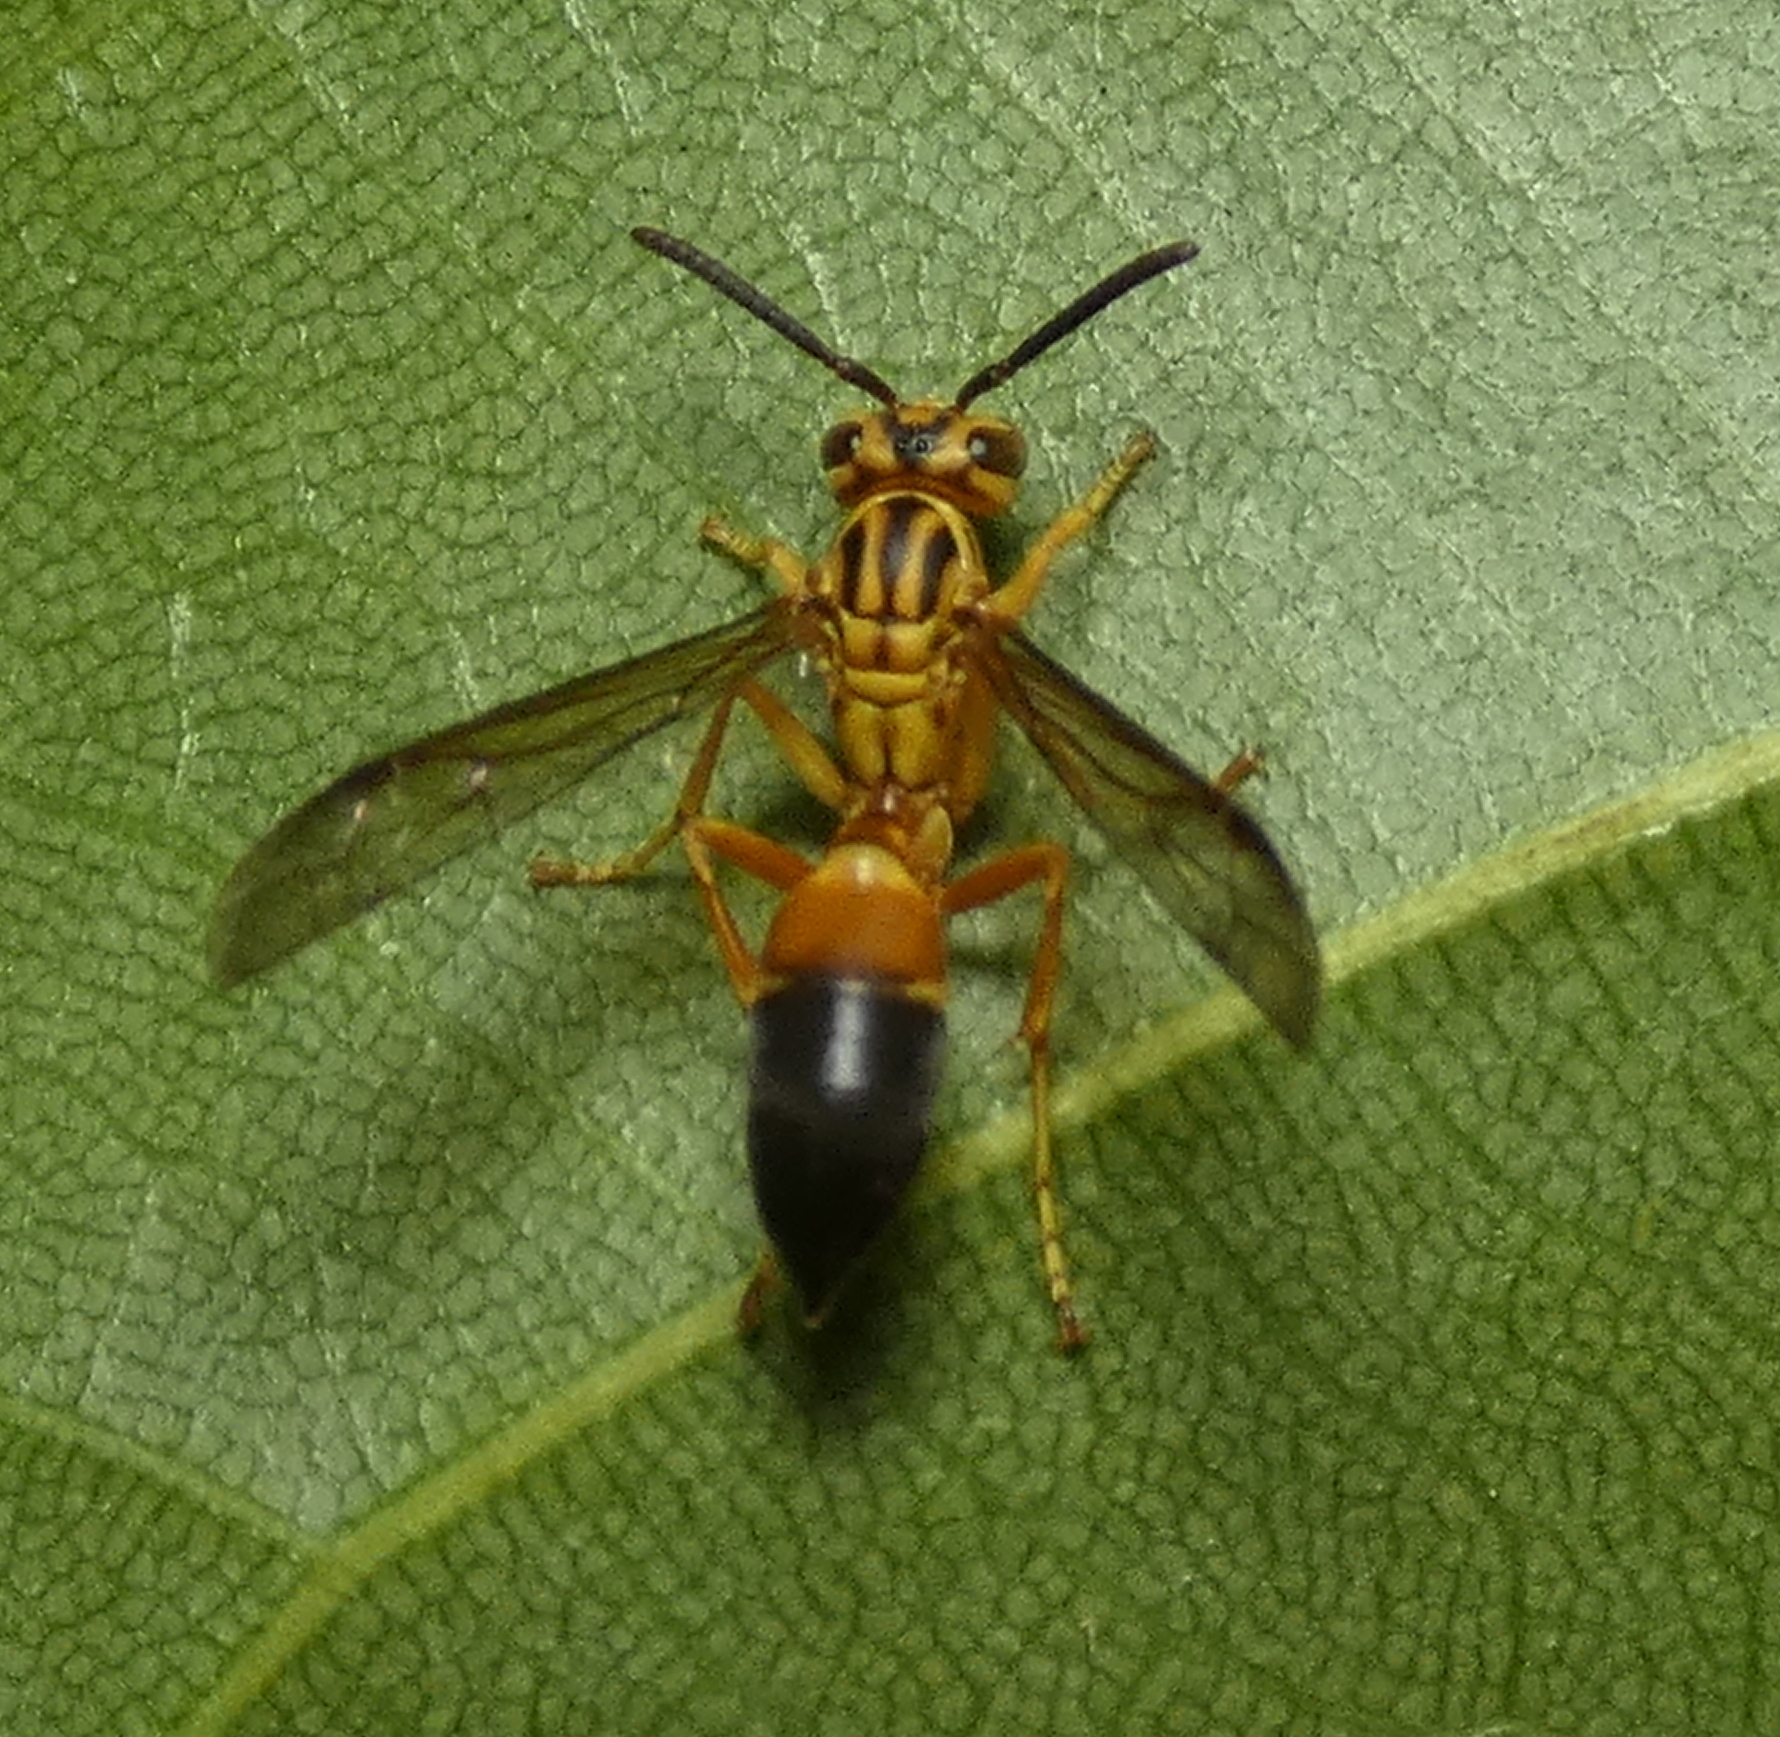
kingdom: Animalia
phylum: Arthropoda
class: Insecta
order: Hymenoptera
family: Vespidae
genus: Agelaia
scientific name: Agelaia pallipes
